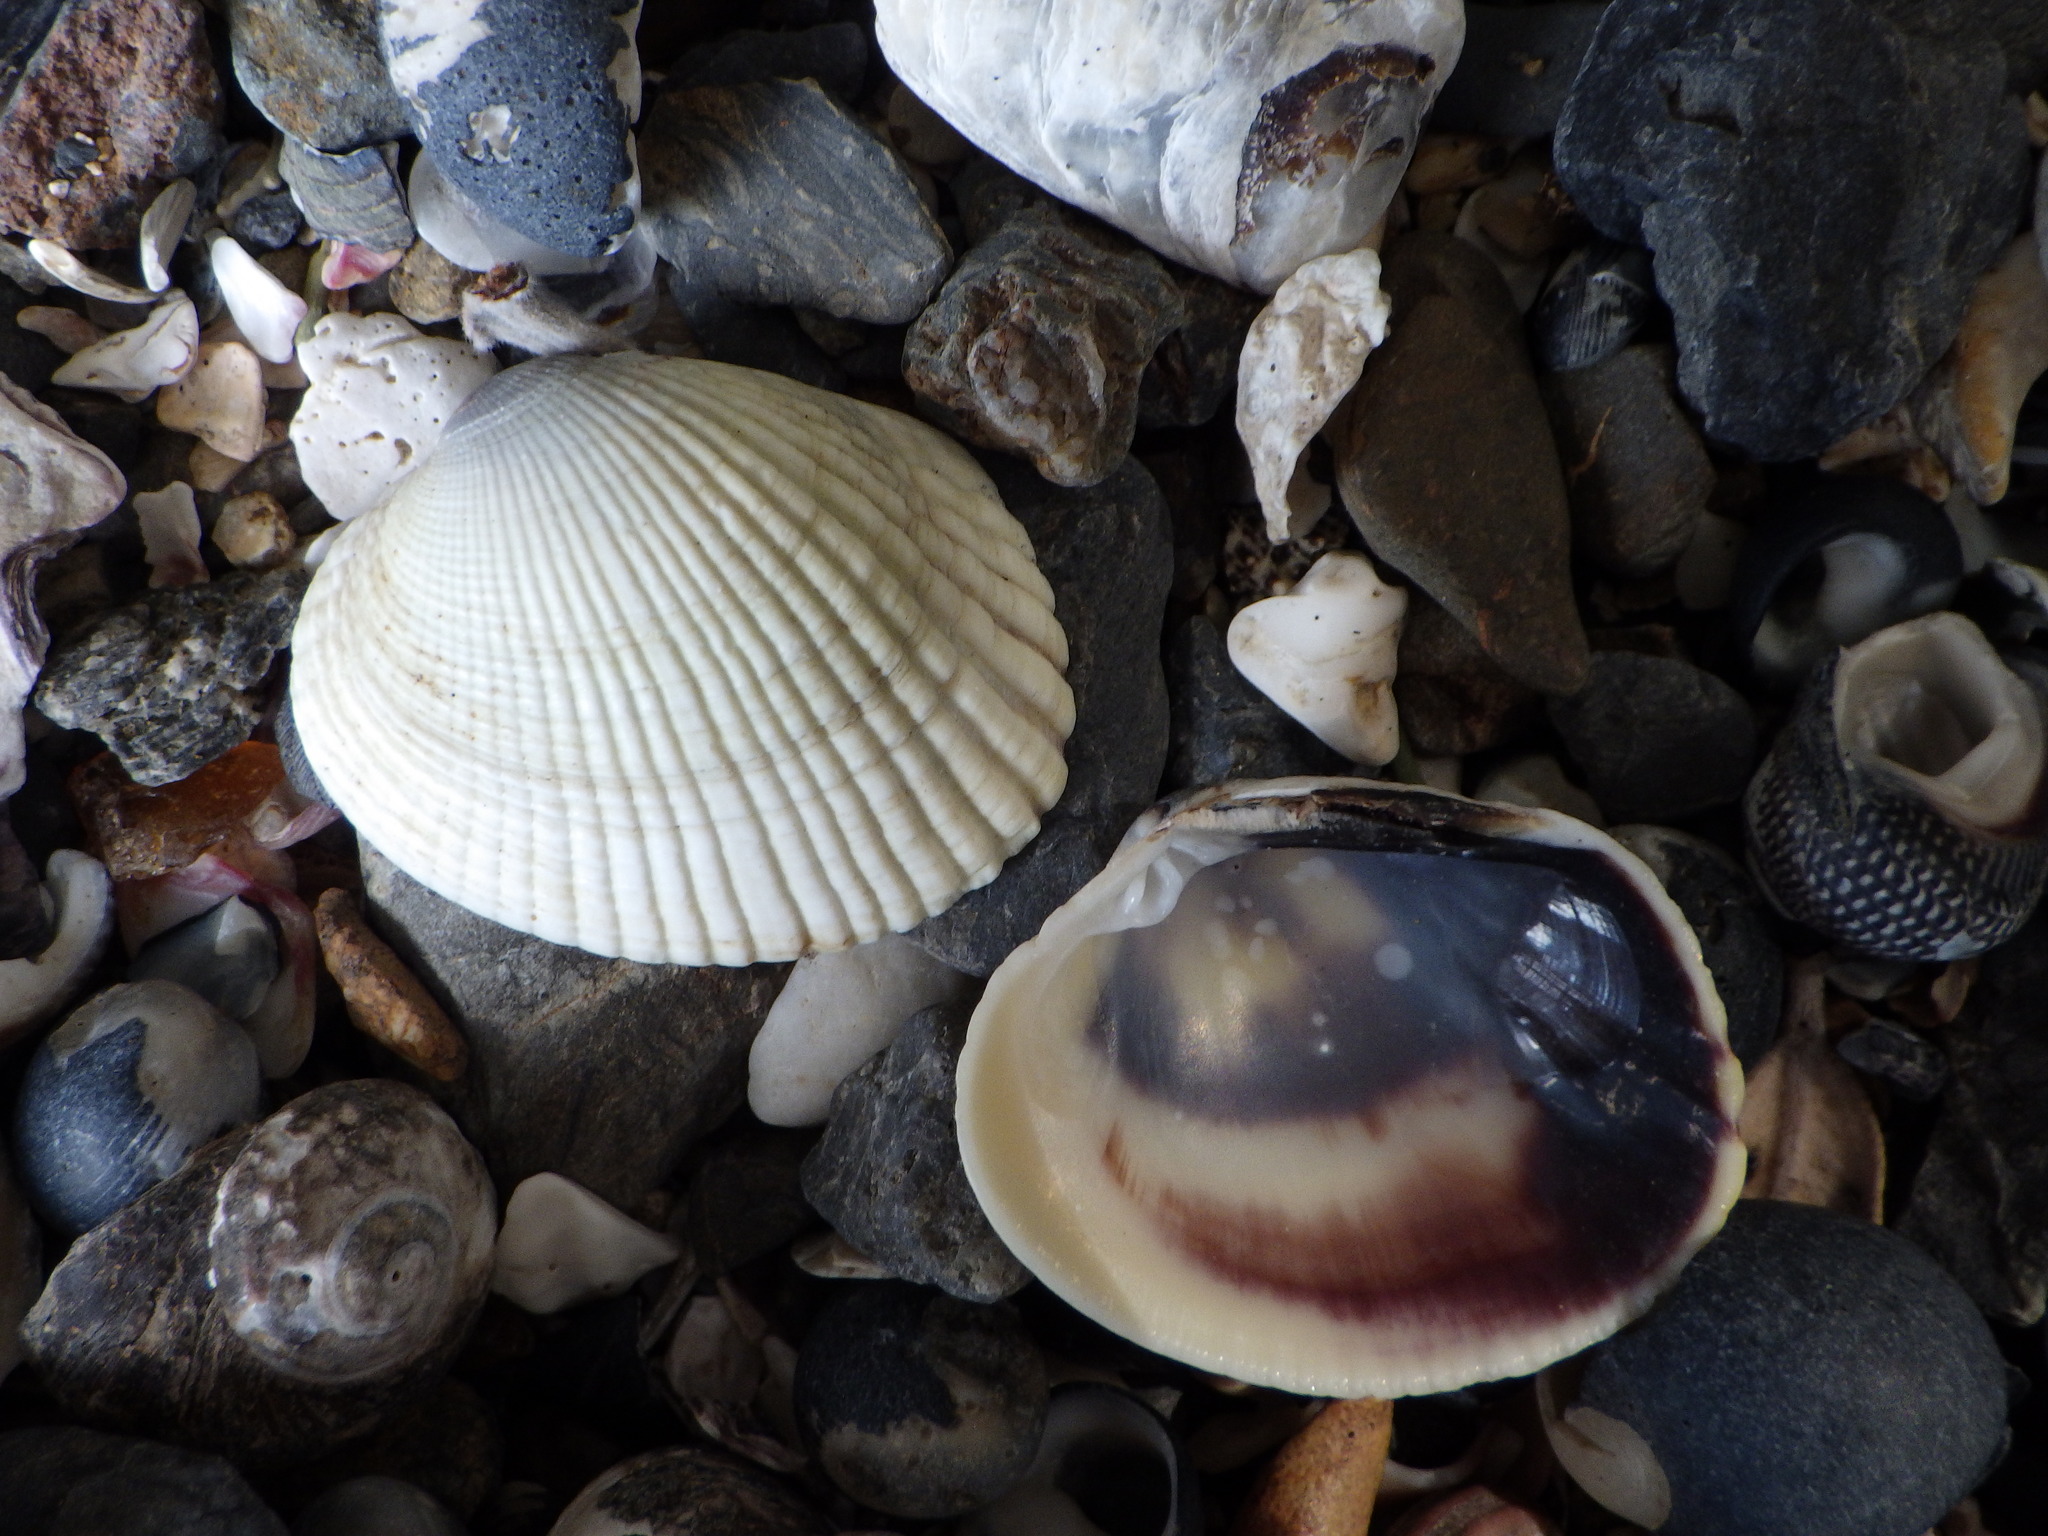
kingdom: Animalia
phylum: Mollusca
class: Bivalvia
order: Venerida
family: Veneridae
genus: Leukoma
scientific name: Leukoma crassicosta
